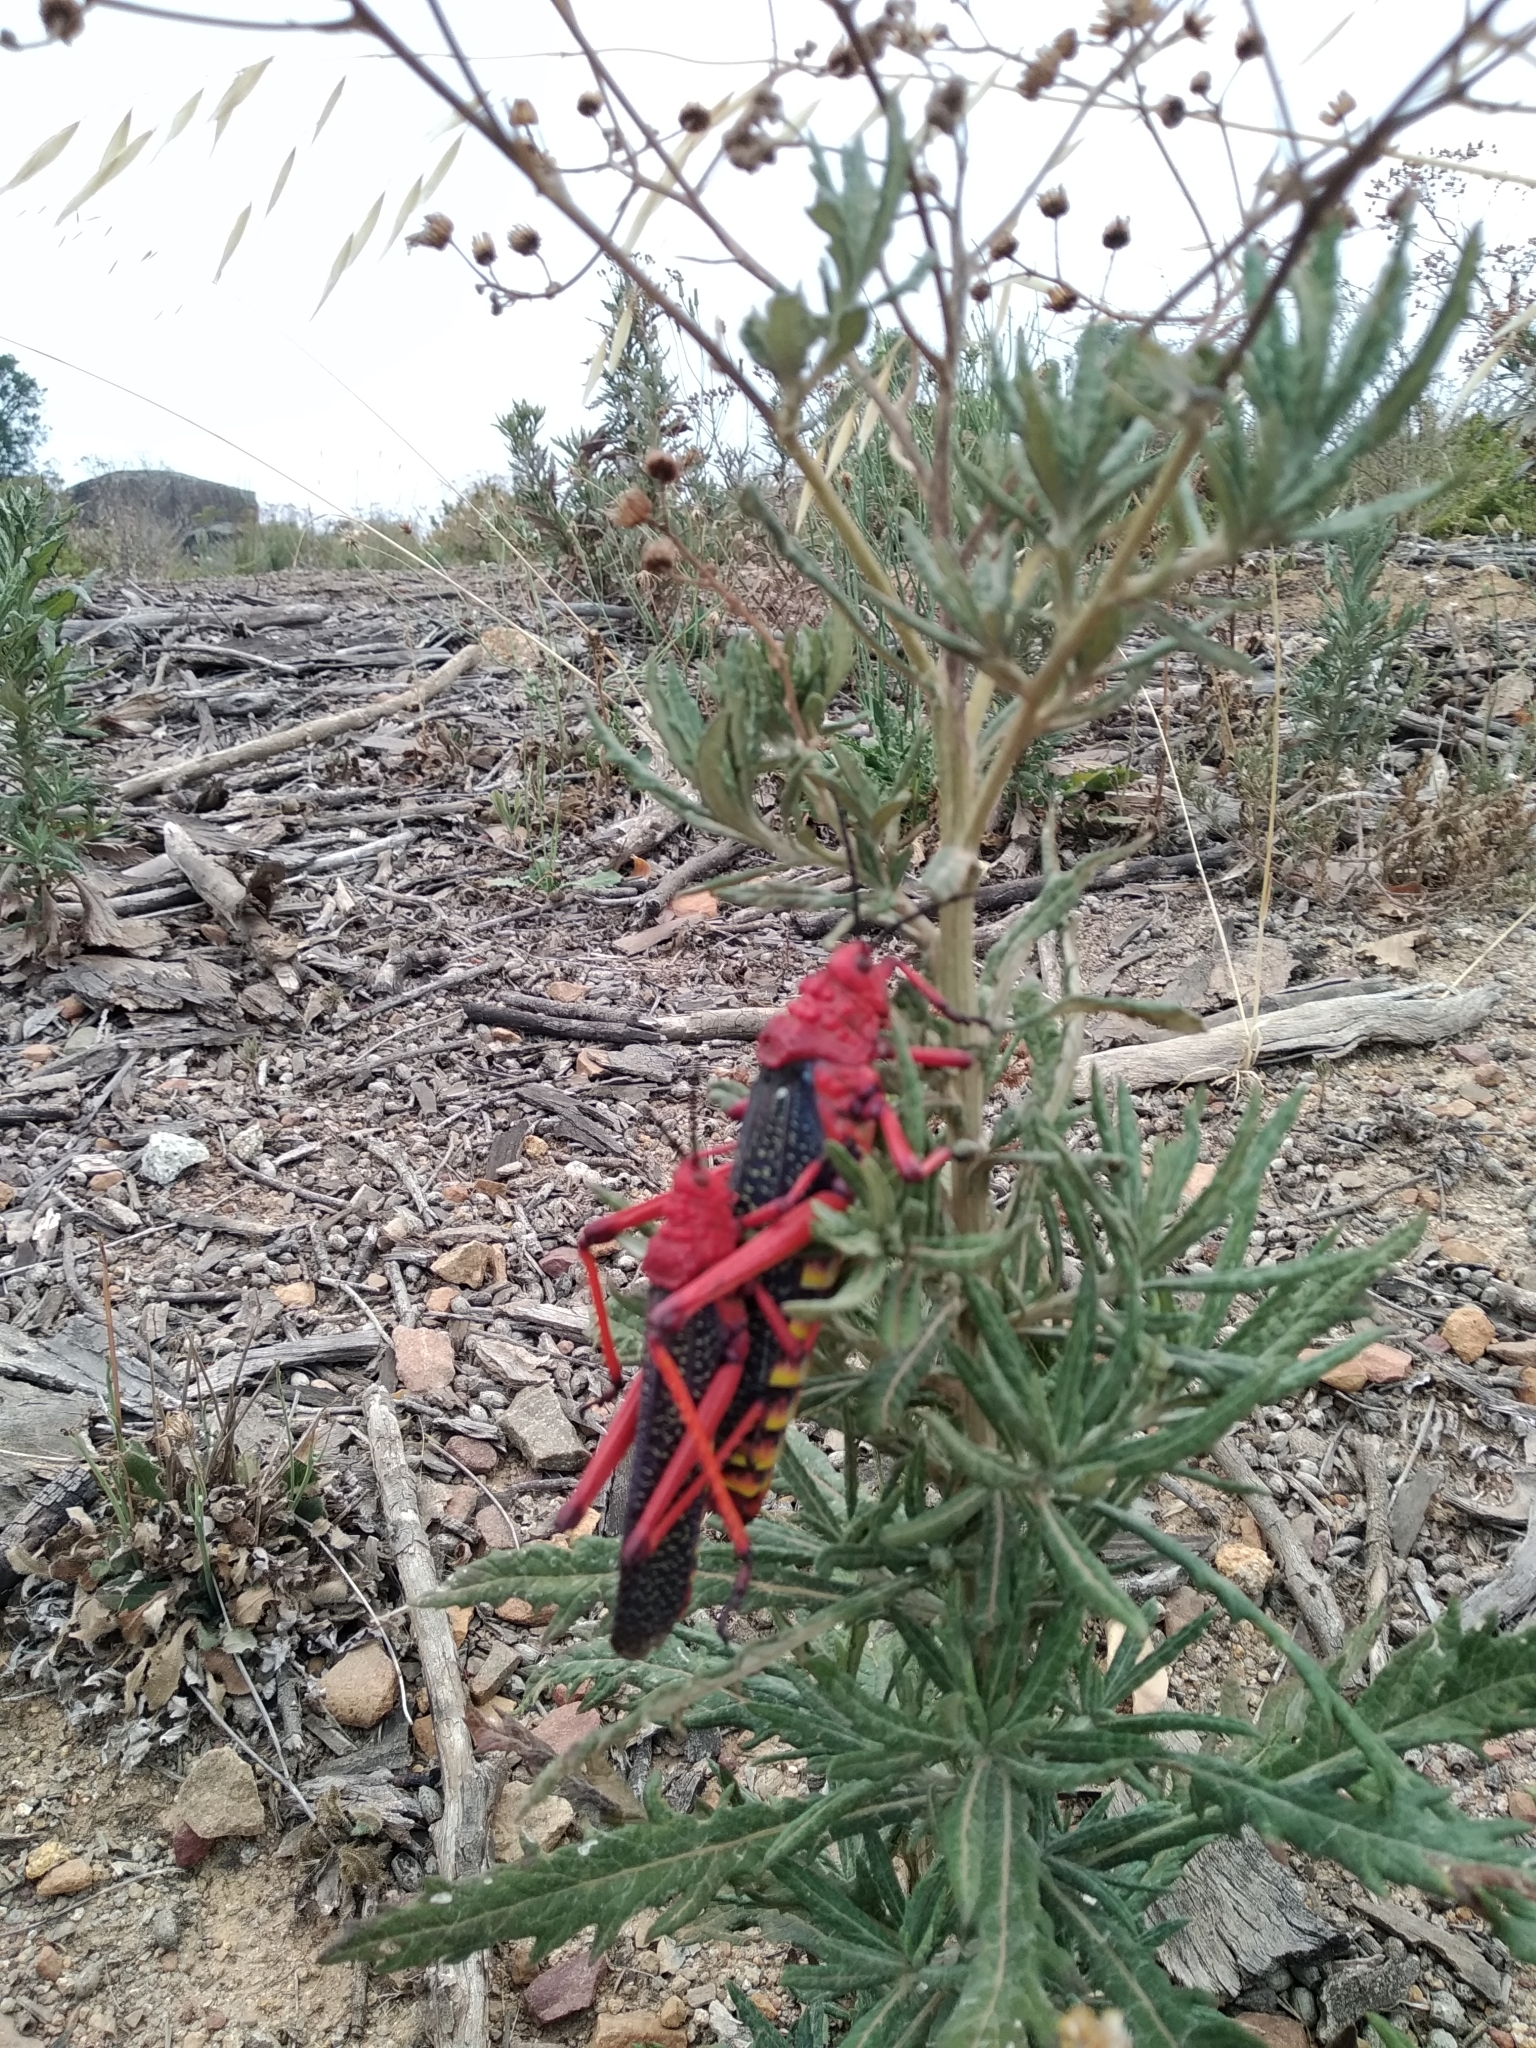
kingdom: Animalia
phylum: Arthropoda
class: Insecta
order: Orthoptera
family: Pyrgomorphidae
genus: Phymateus
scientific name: Phymateus morbillosus
